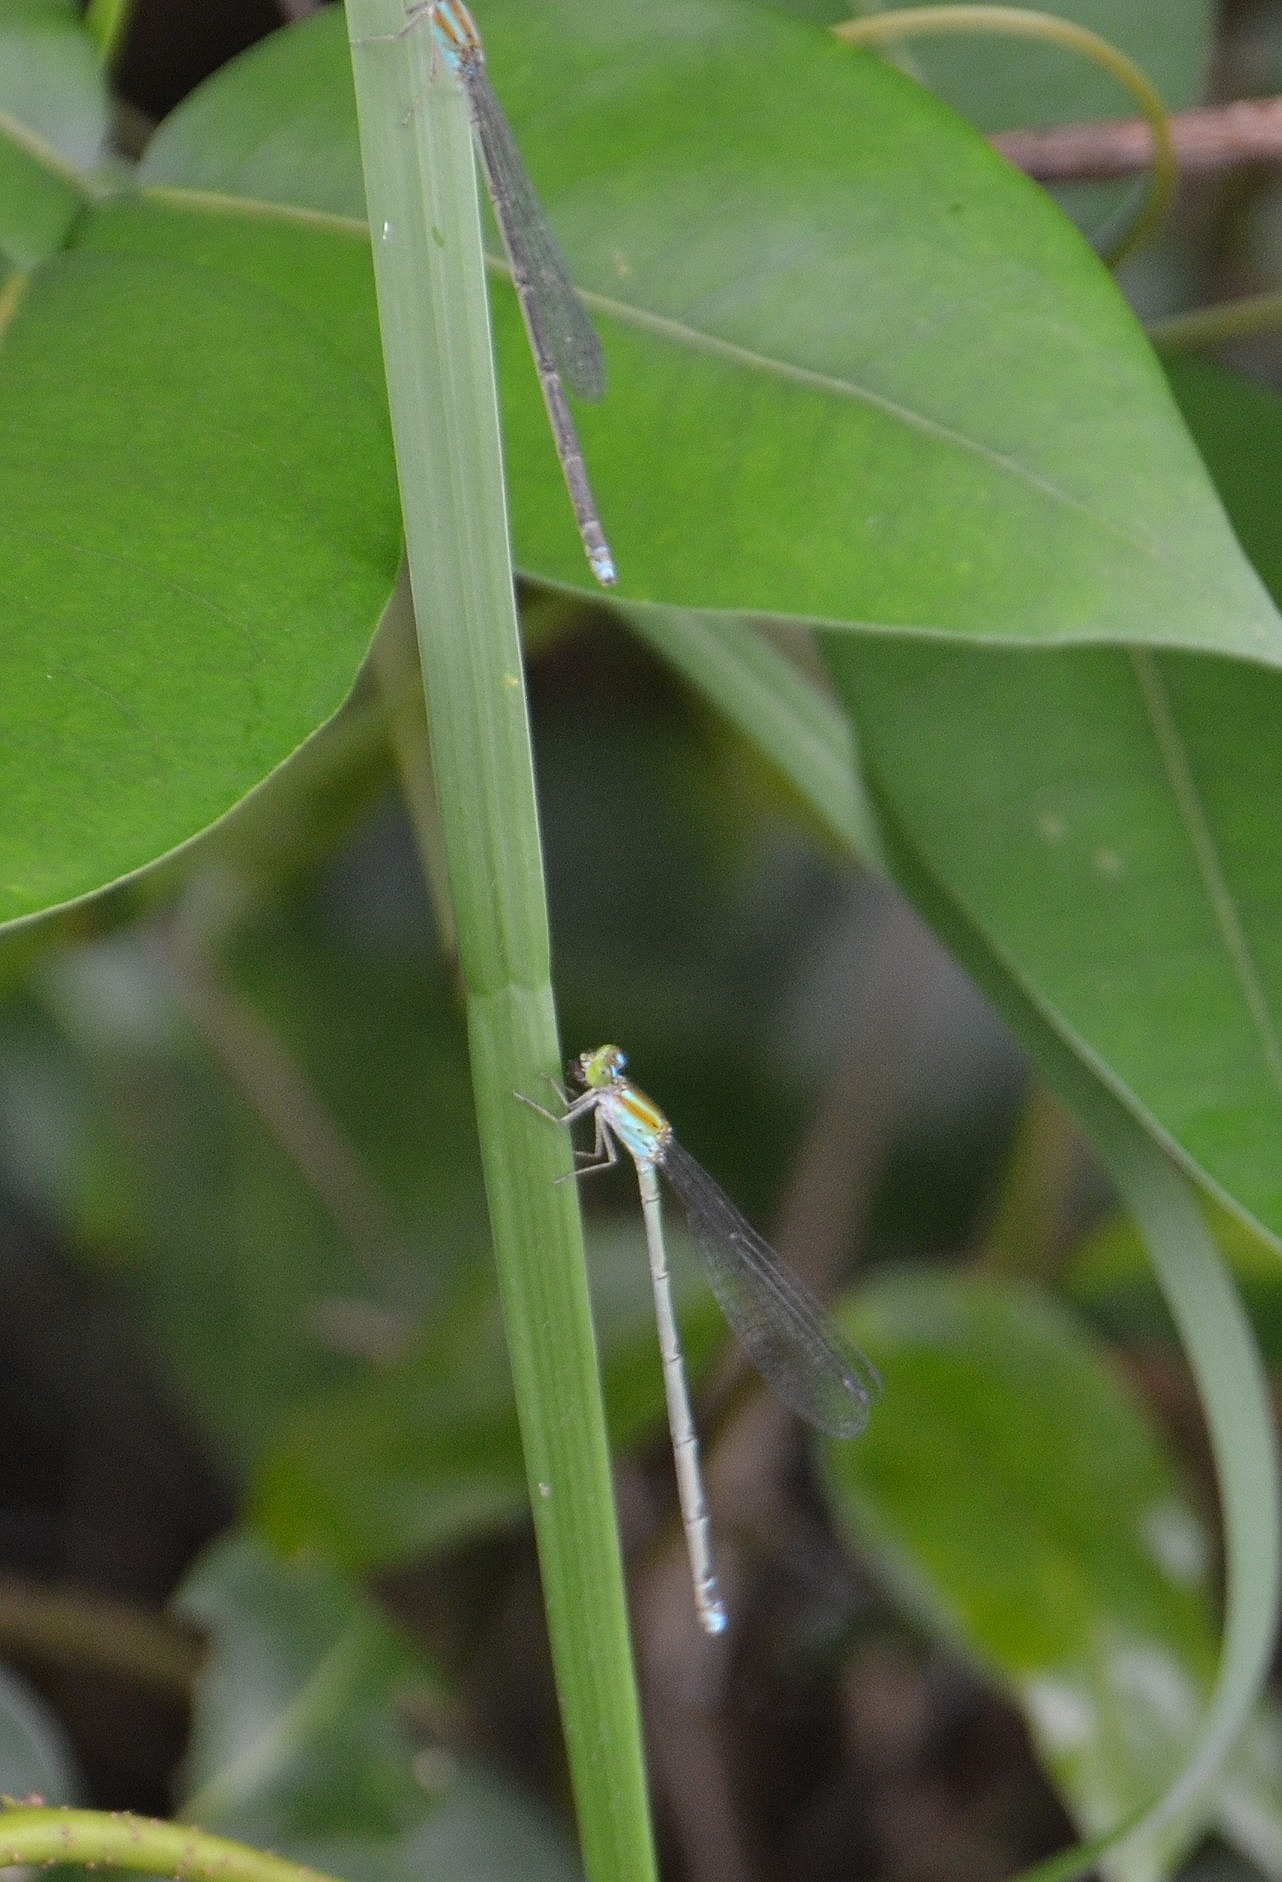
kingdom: Animalia
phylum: Arthropoda
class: Insecta
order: Odonata
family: Coenagrionidae
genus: Pseudagrion
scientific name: Pseudagrion microcephalum
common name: Blue riverdamsel
